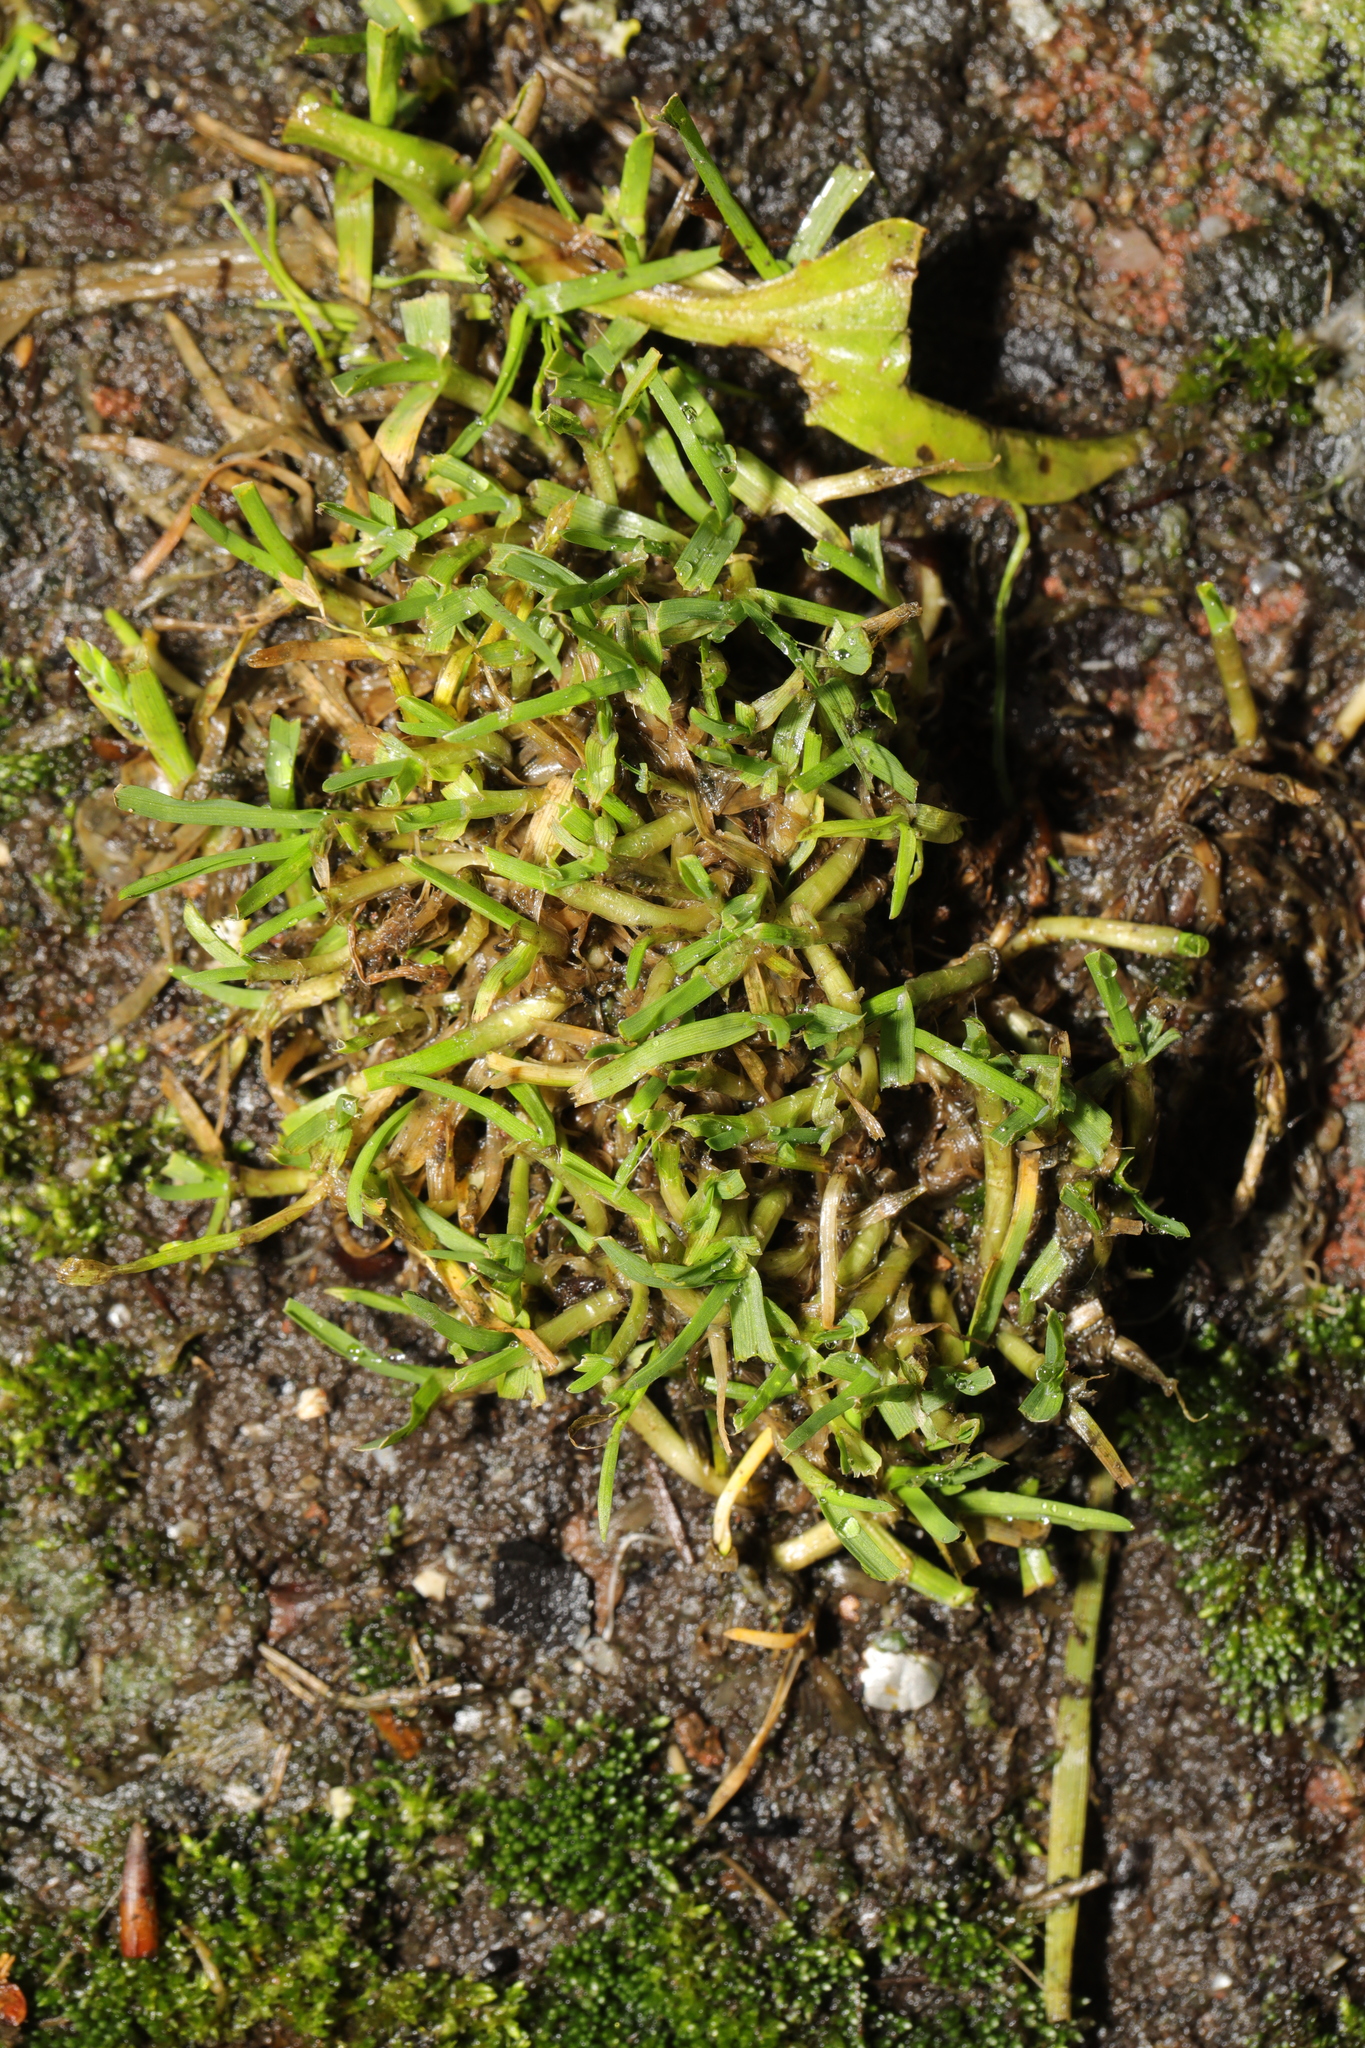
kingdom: Plantae
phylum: Tracheophyta
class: Liliopsida
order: Poales
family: Poaceae
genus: Poa
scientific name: Poa annua
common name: Annual bluegrass
